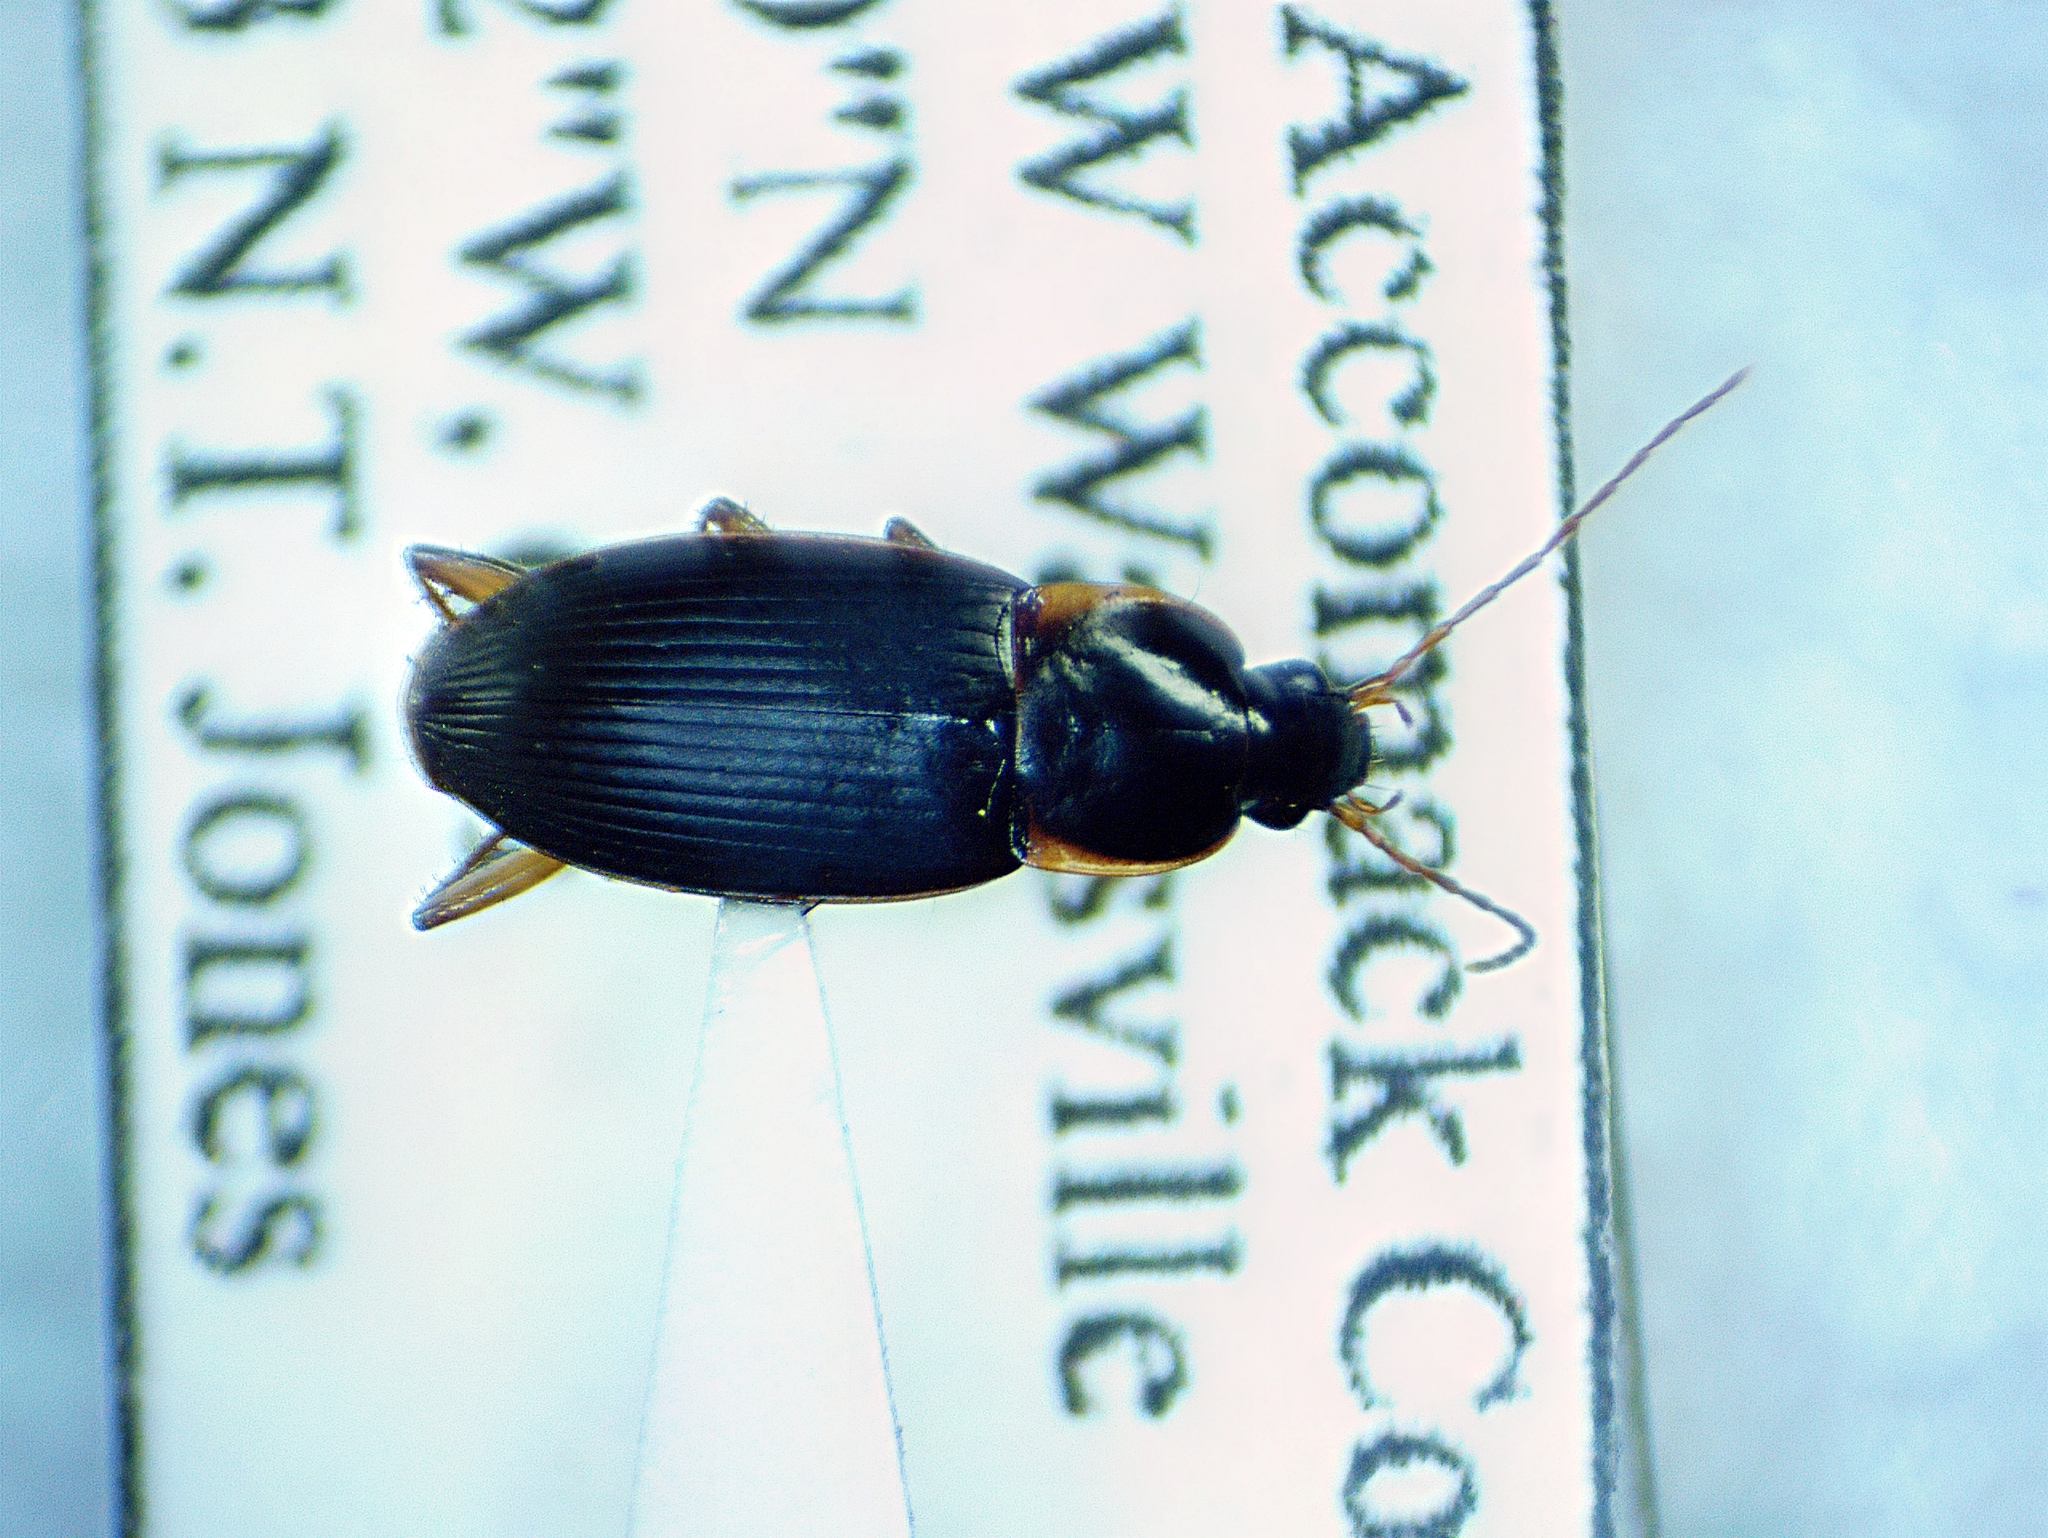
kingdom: Animalia
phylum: Arthropoda
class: Insecta
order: Coleoptera
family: Carabidae
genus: Calathus
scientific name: Calathus opaculus
